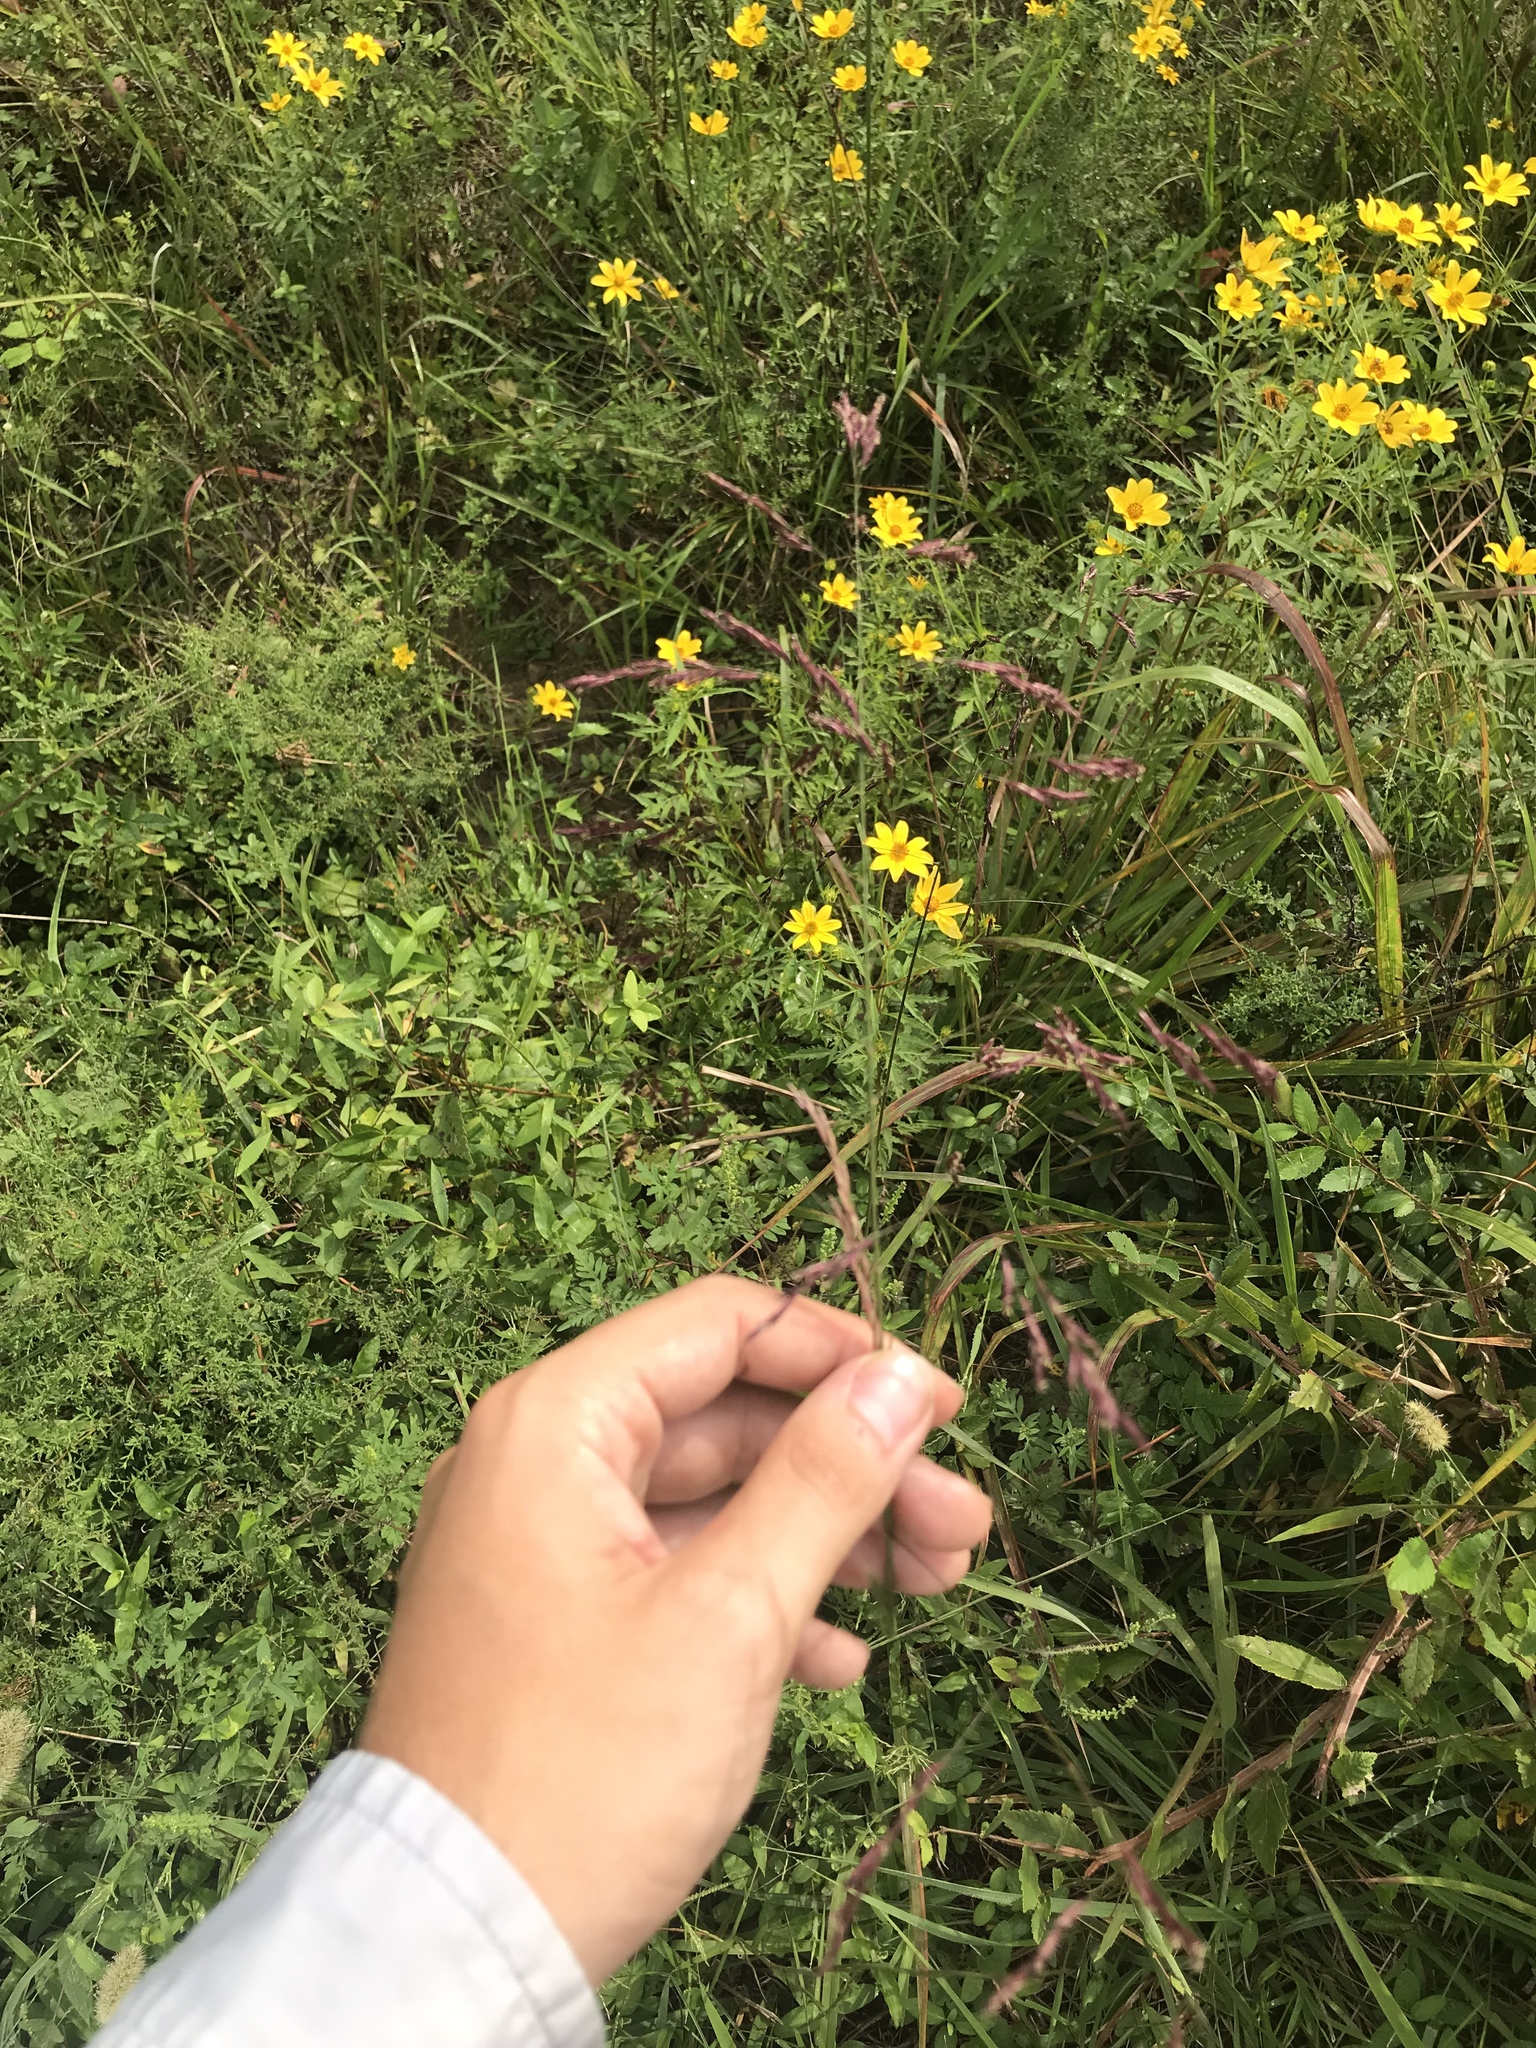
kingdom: Plantae
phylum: Tracheophyta
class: Liliopsida
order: Poales
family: Poaceae
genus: Tridens
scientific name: Tridens flavus
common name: Purpletop
